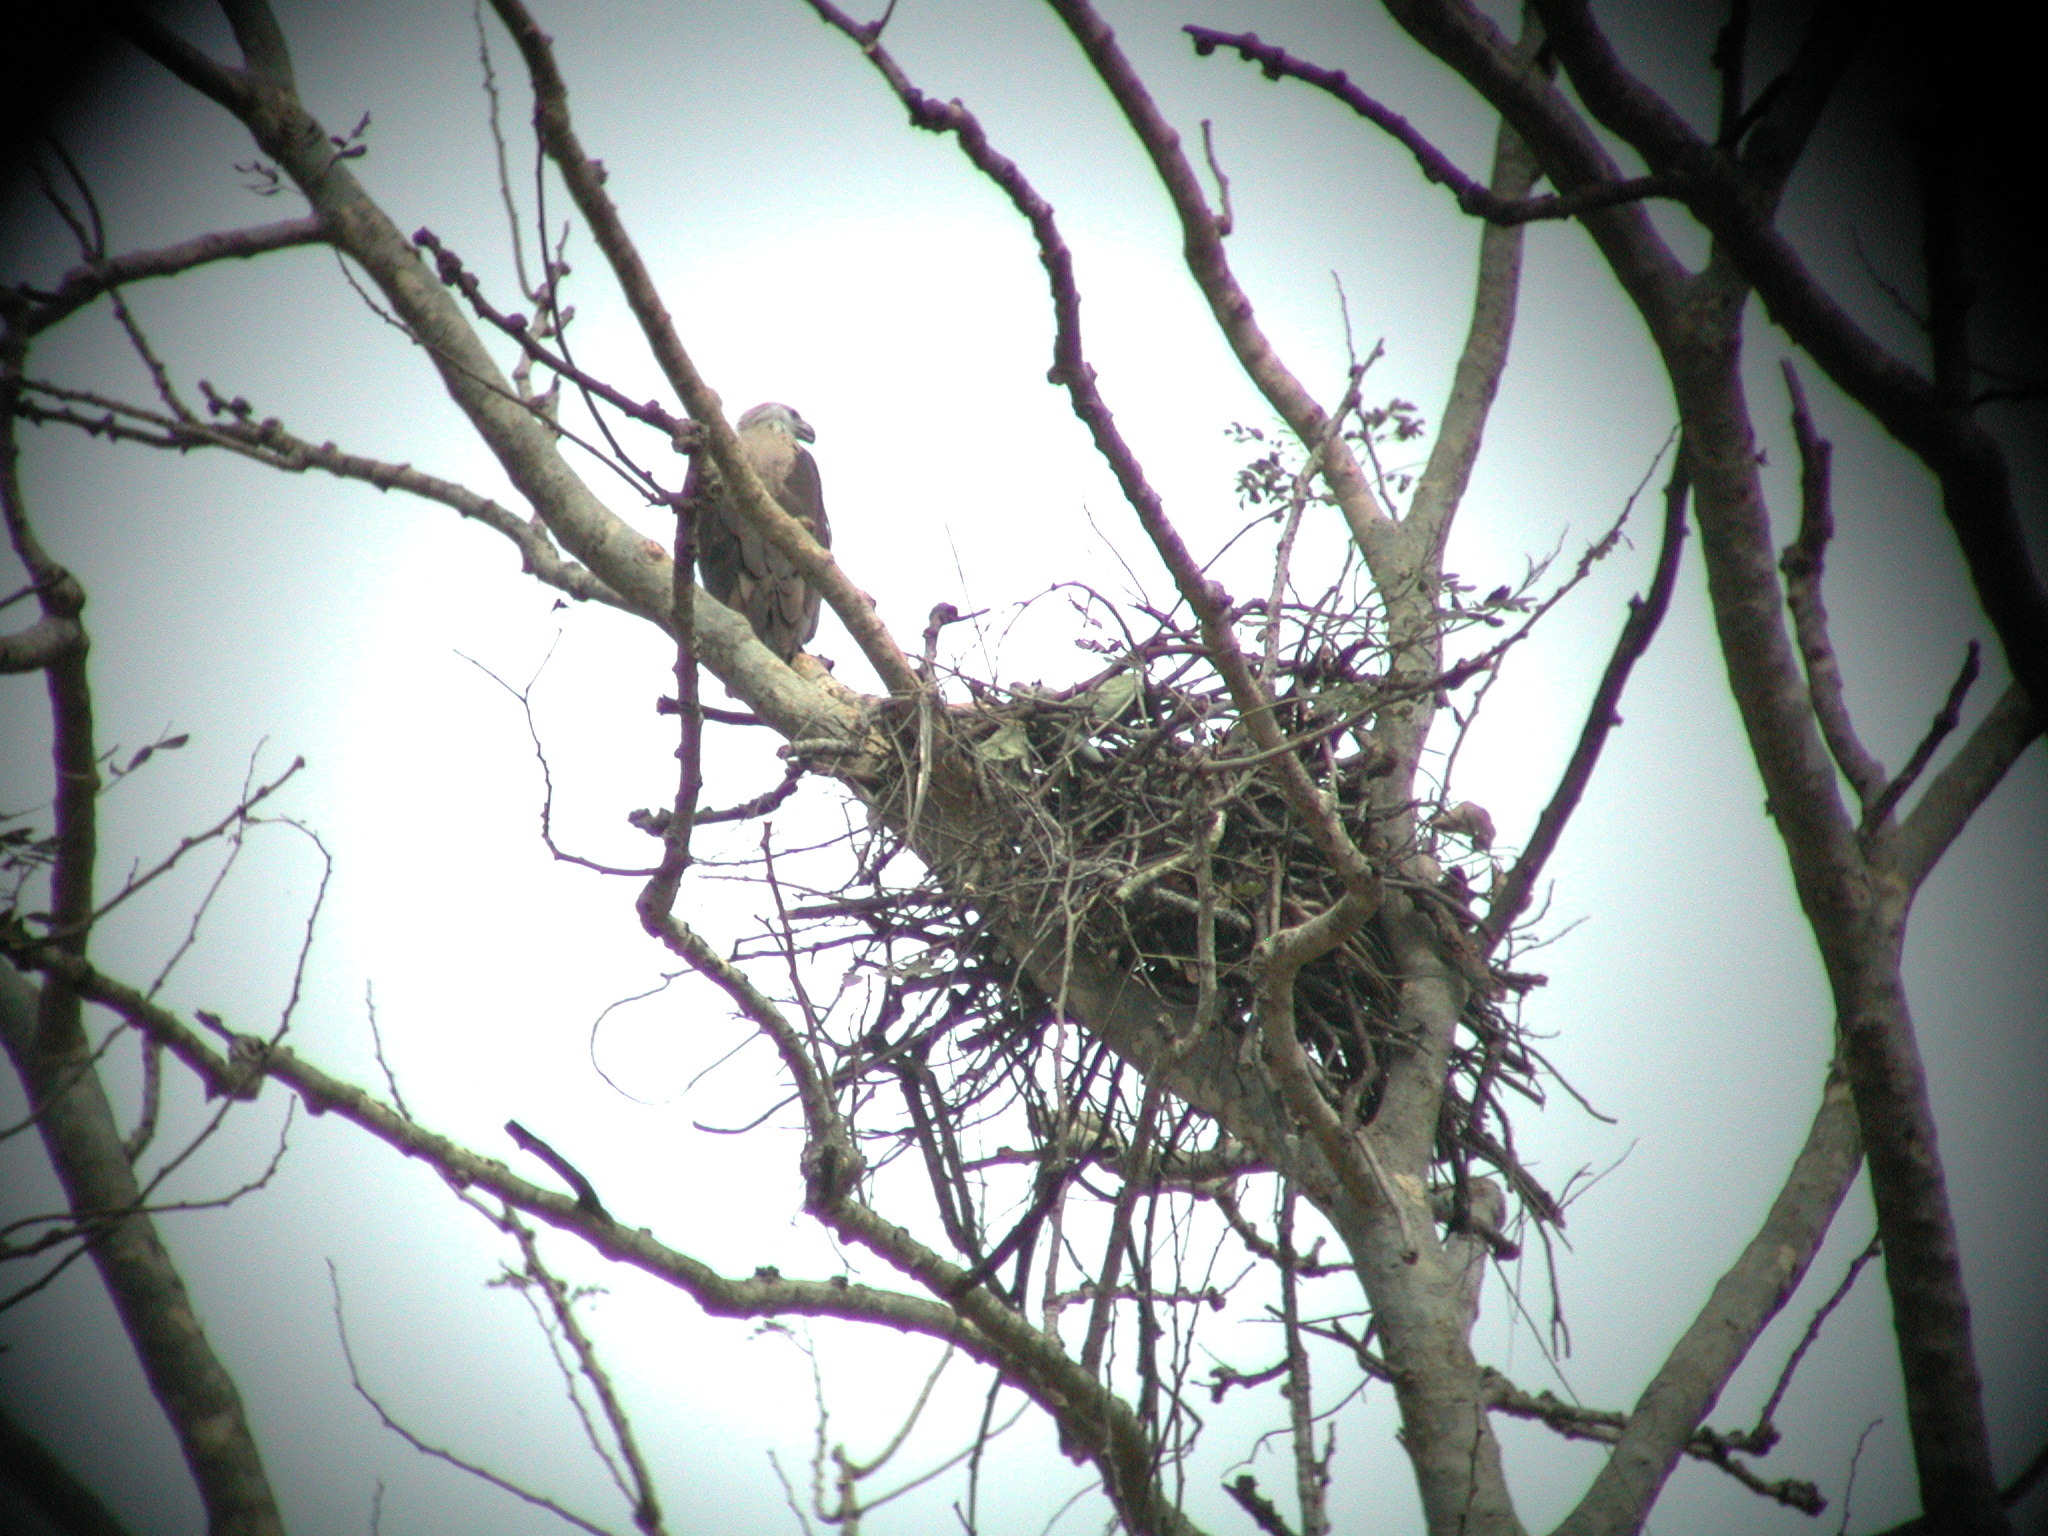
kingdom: Animalia
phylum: Chordata
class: Aves
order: Accipitriformes
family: Accipitridae
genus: Haliaeetus
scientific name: Haliaeetus leucoryphus
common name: Pallas's fish eagle
